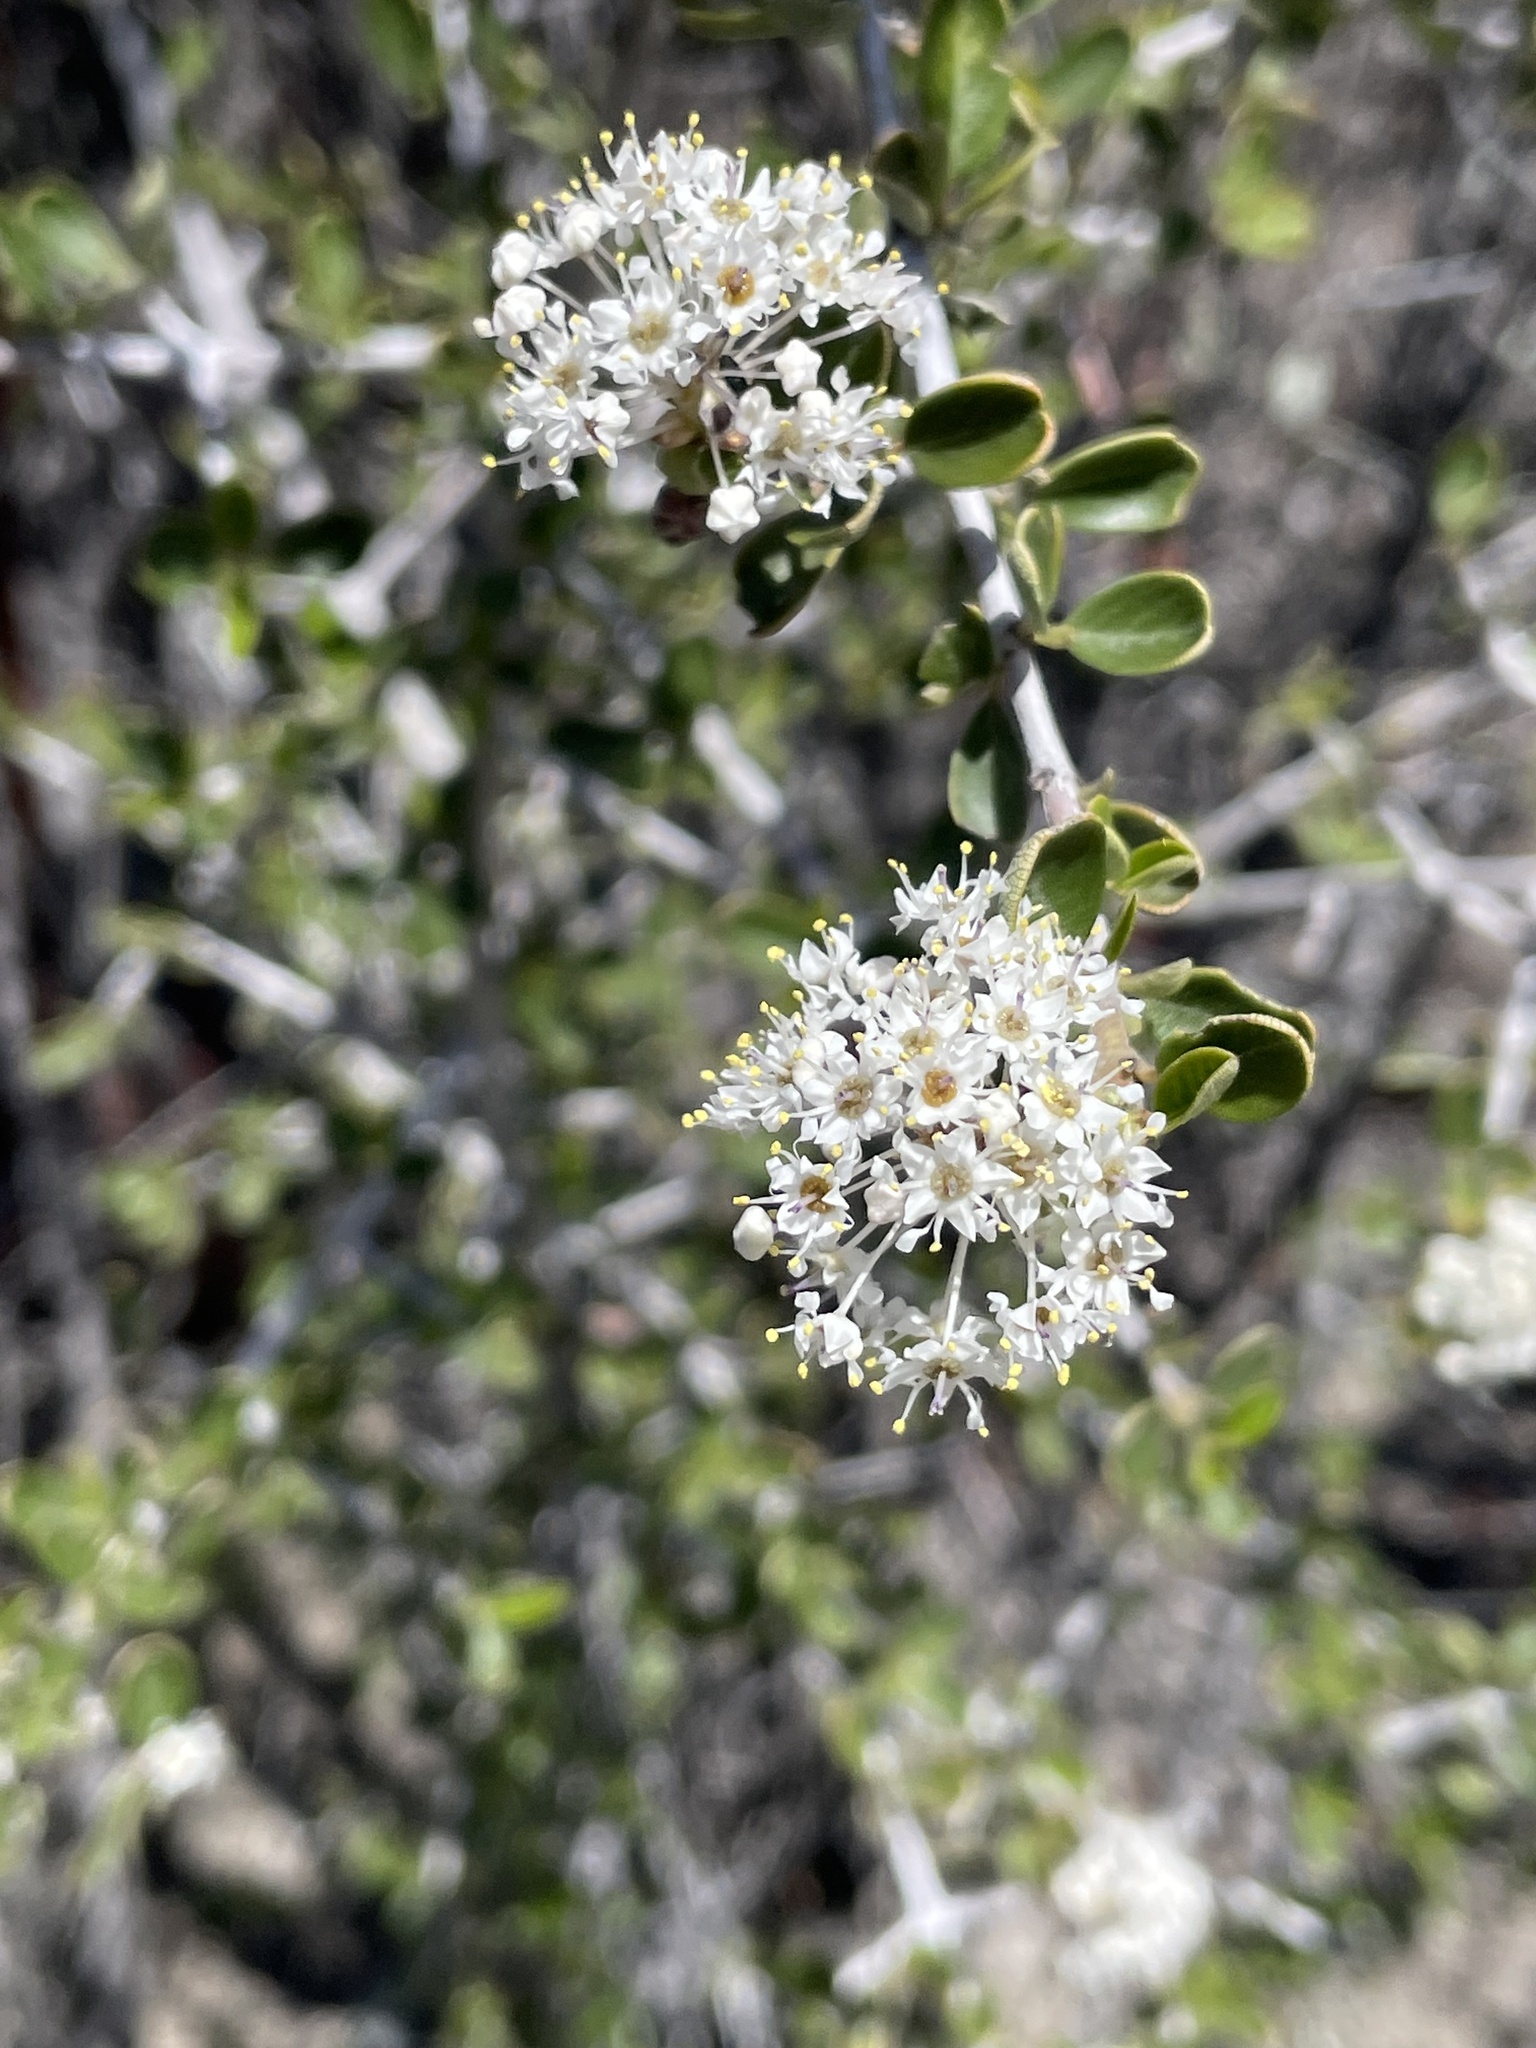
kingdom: Plantae
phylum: Tracheophyta
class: Magnoliopsida
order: Rosales
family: Rhamnaceae
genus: Ceanothus
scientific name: Ceanothus cuneatus
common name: Cuneate ceanothus
